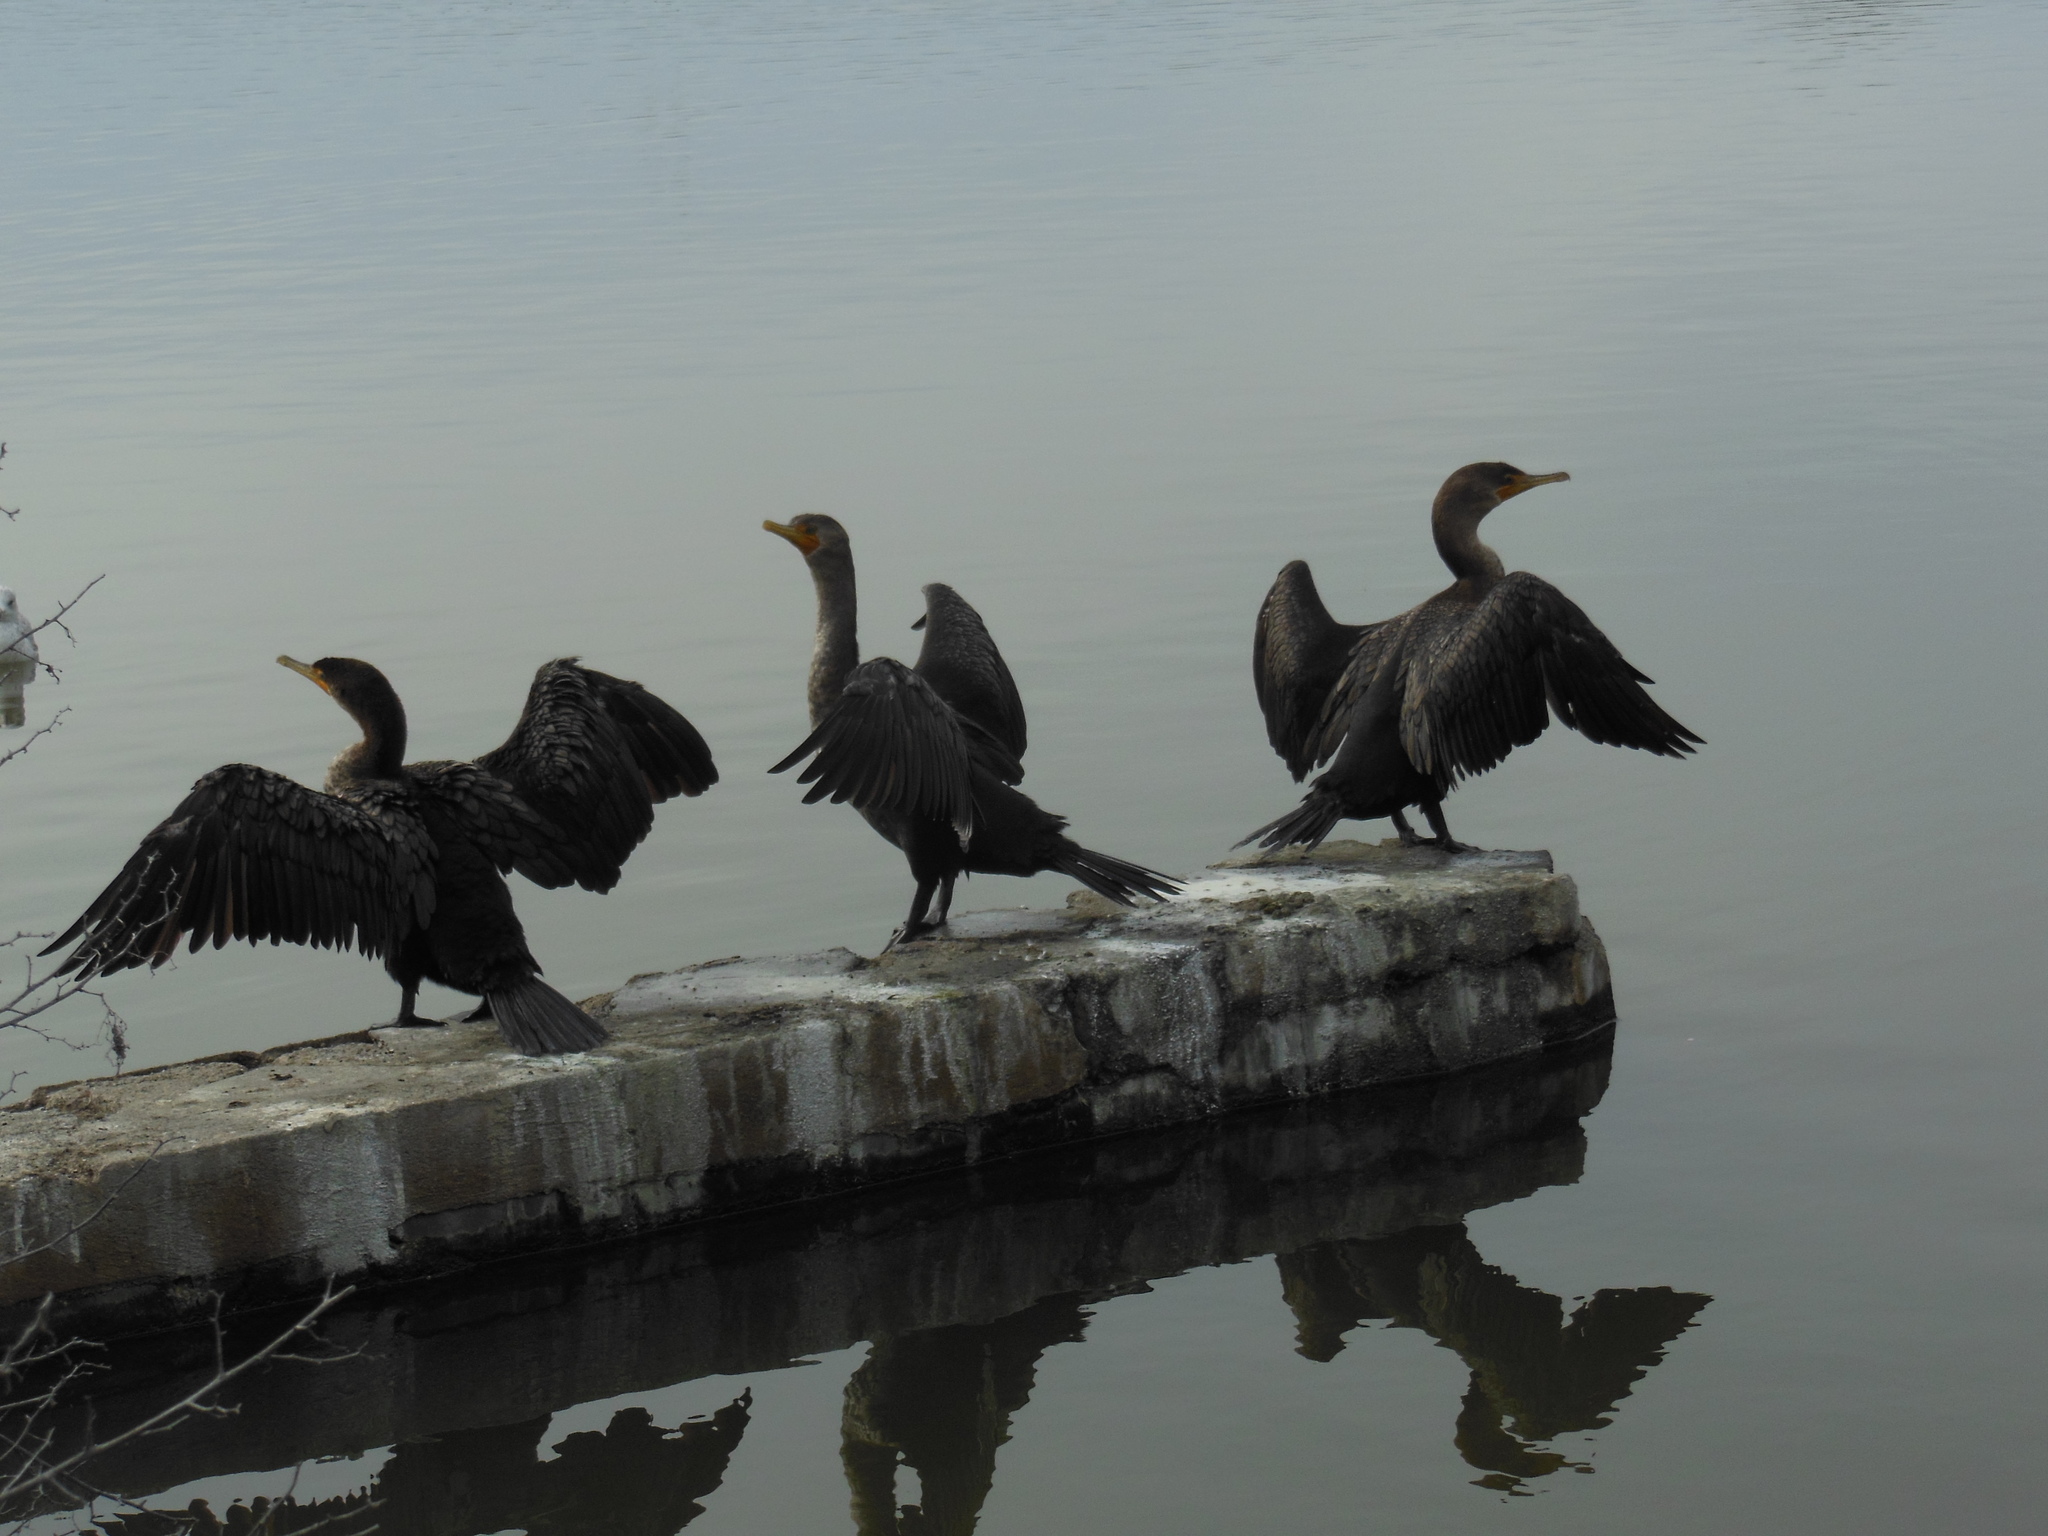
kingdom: Animalia
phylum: Chordata
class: Aves
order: Suliformes
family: Phalacrocoracidae
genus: Phalacrocorax
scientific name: Phalacrocorax auritus
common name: Double-crested cormorant
